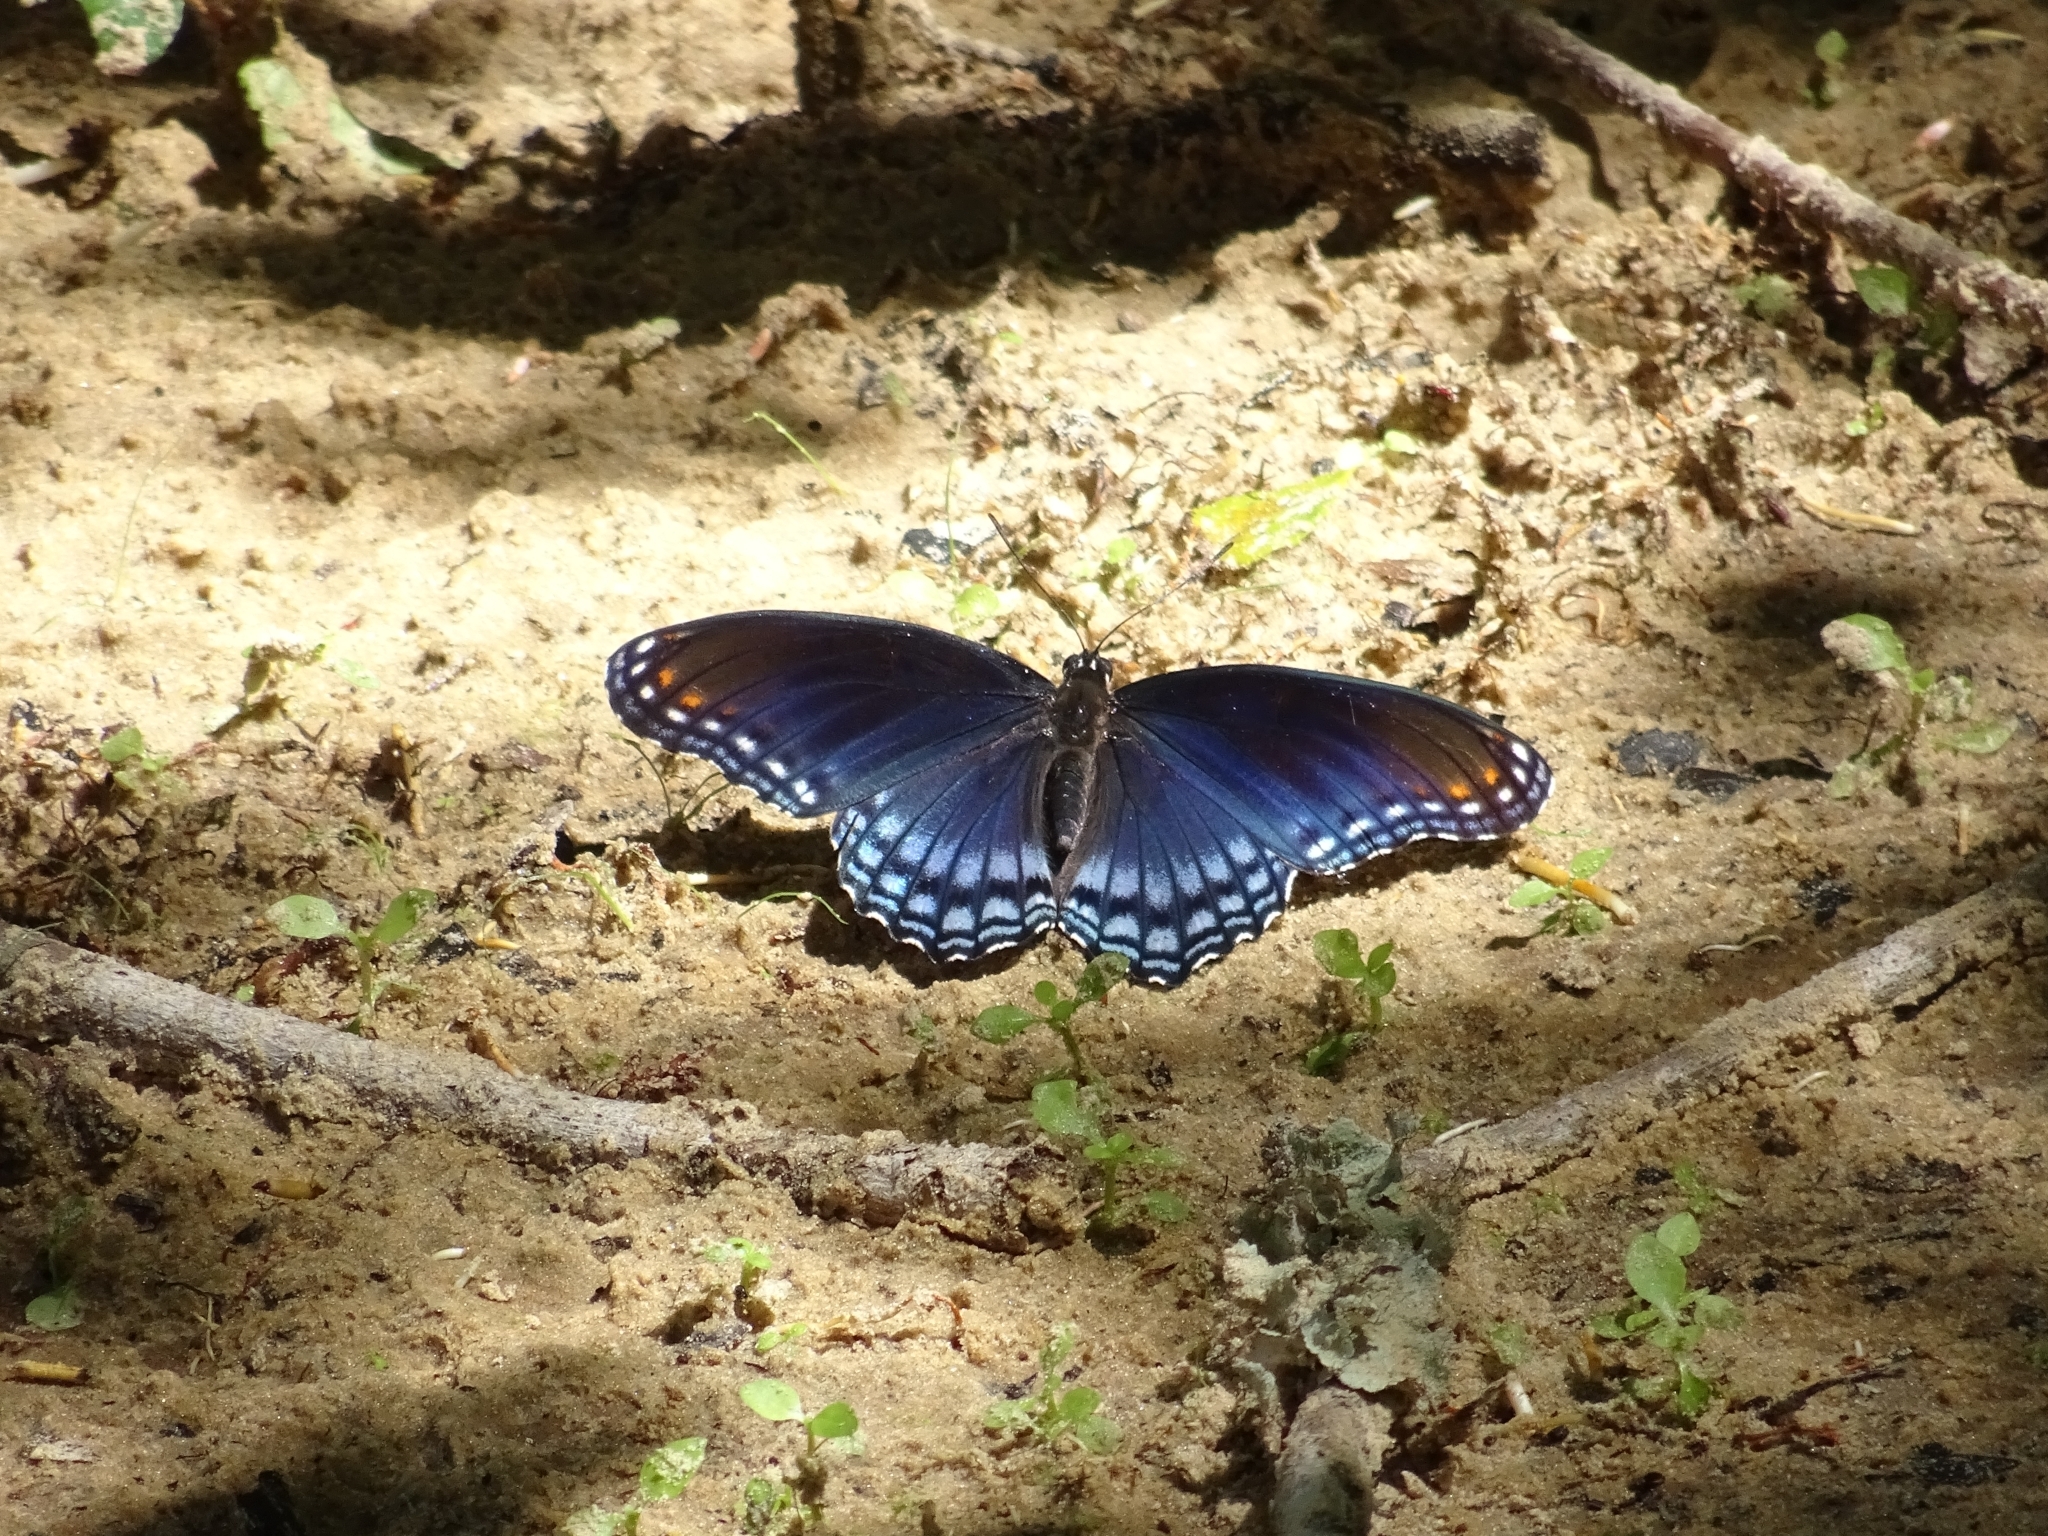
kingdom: Animalia
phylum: Arthropoda
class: Insecta
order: Lepidoptera
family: Nymphalidae
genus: Limenitis
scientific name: Limenitis arthemis
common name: Red-spotted admiral
